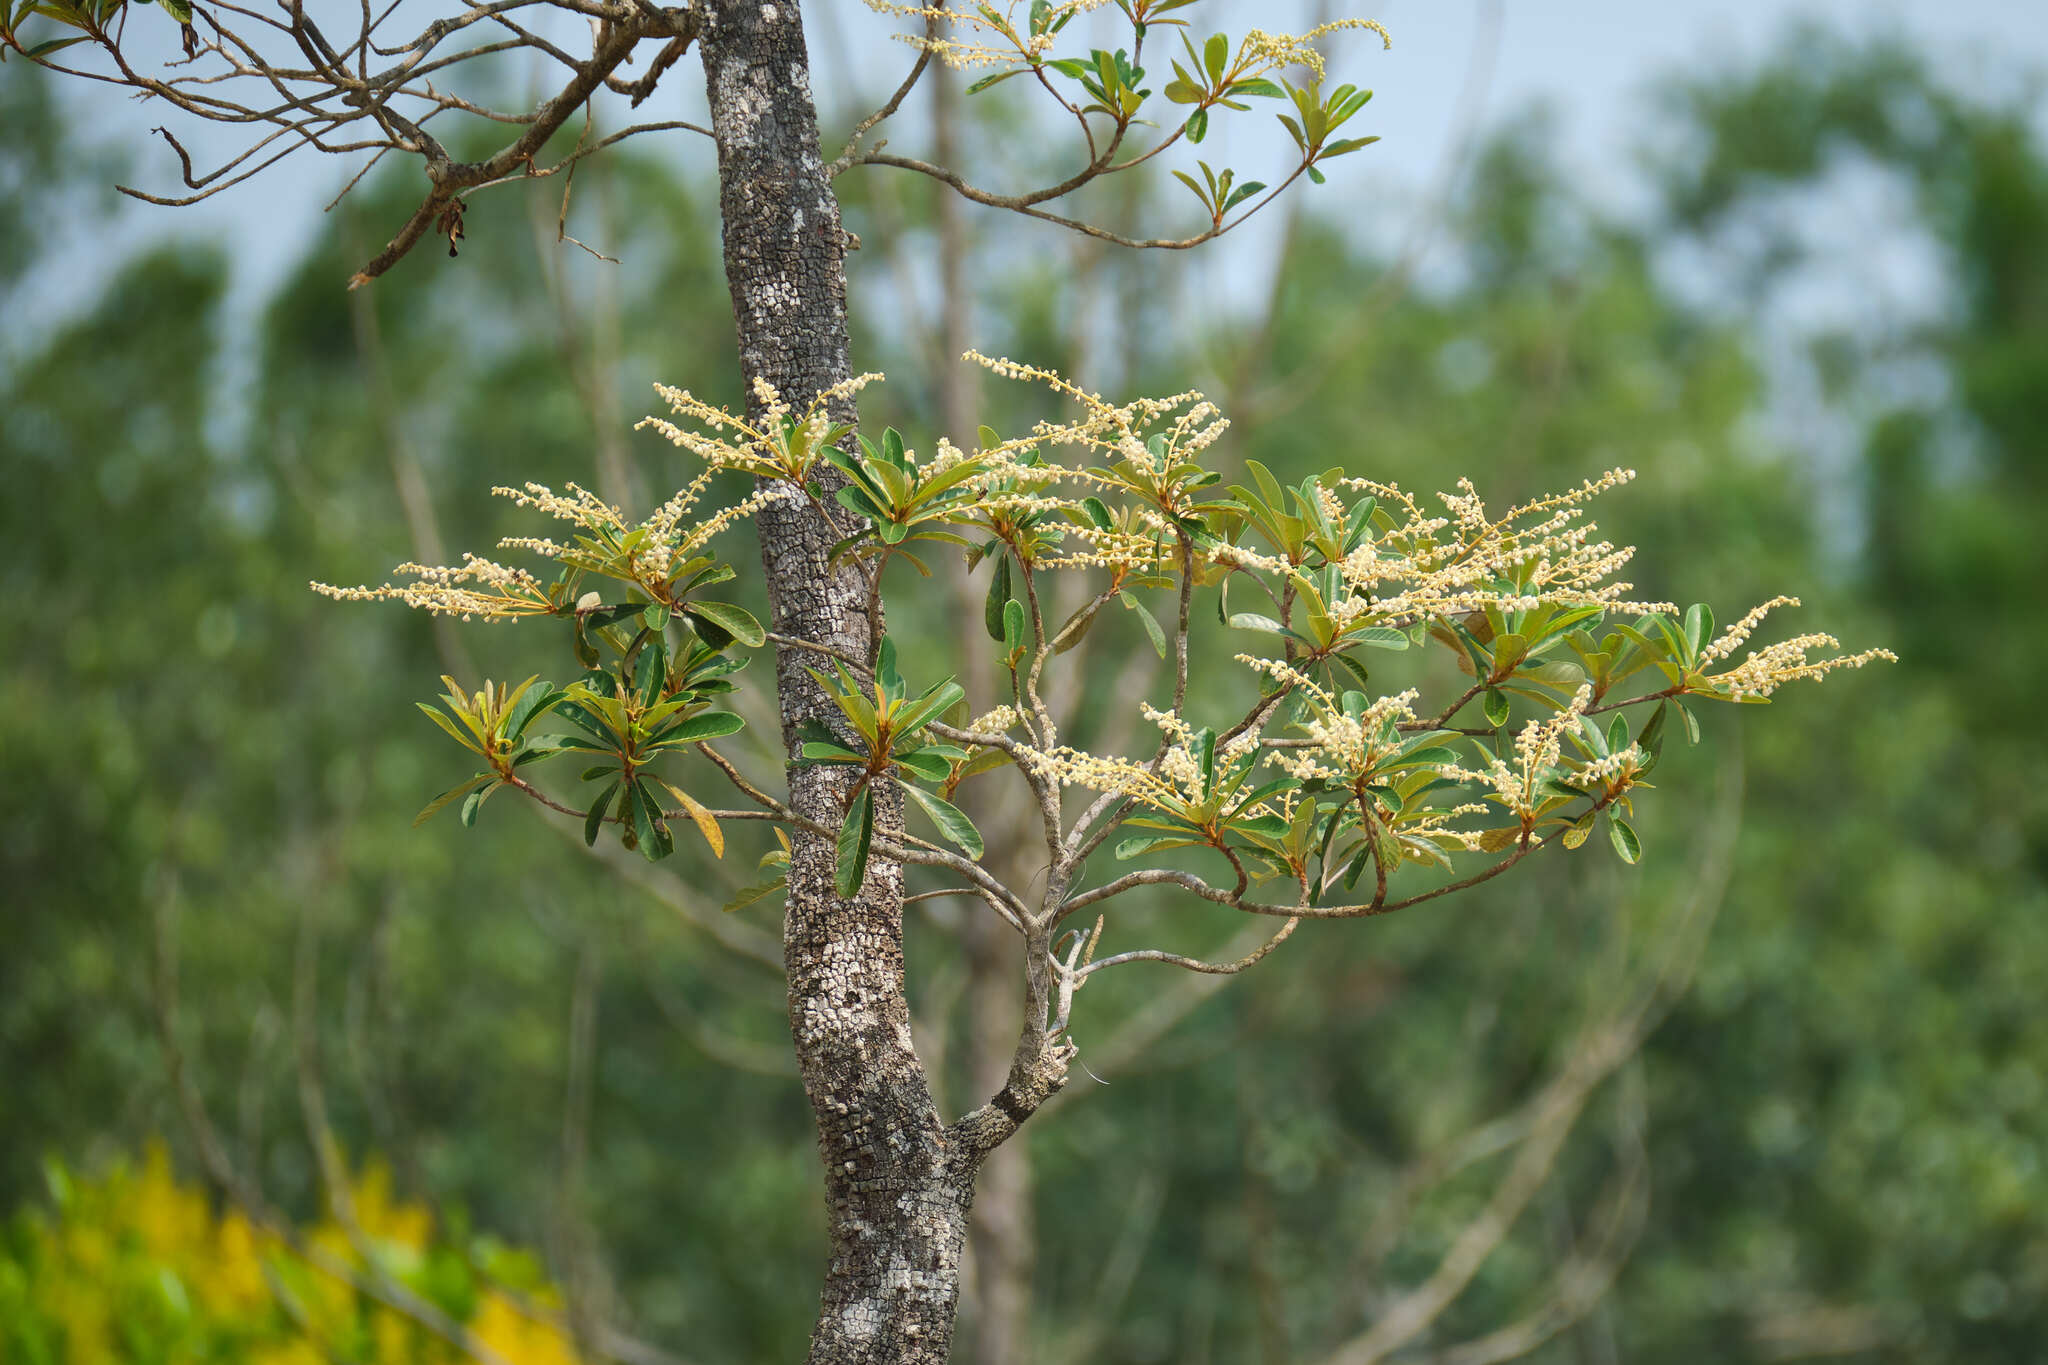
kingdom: Plantae
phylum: Tracheophyta
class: Magnoliopsida
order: Ericales
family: Clethraceae
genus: Clethra
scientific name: Clethra hondurensis
